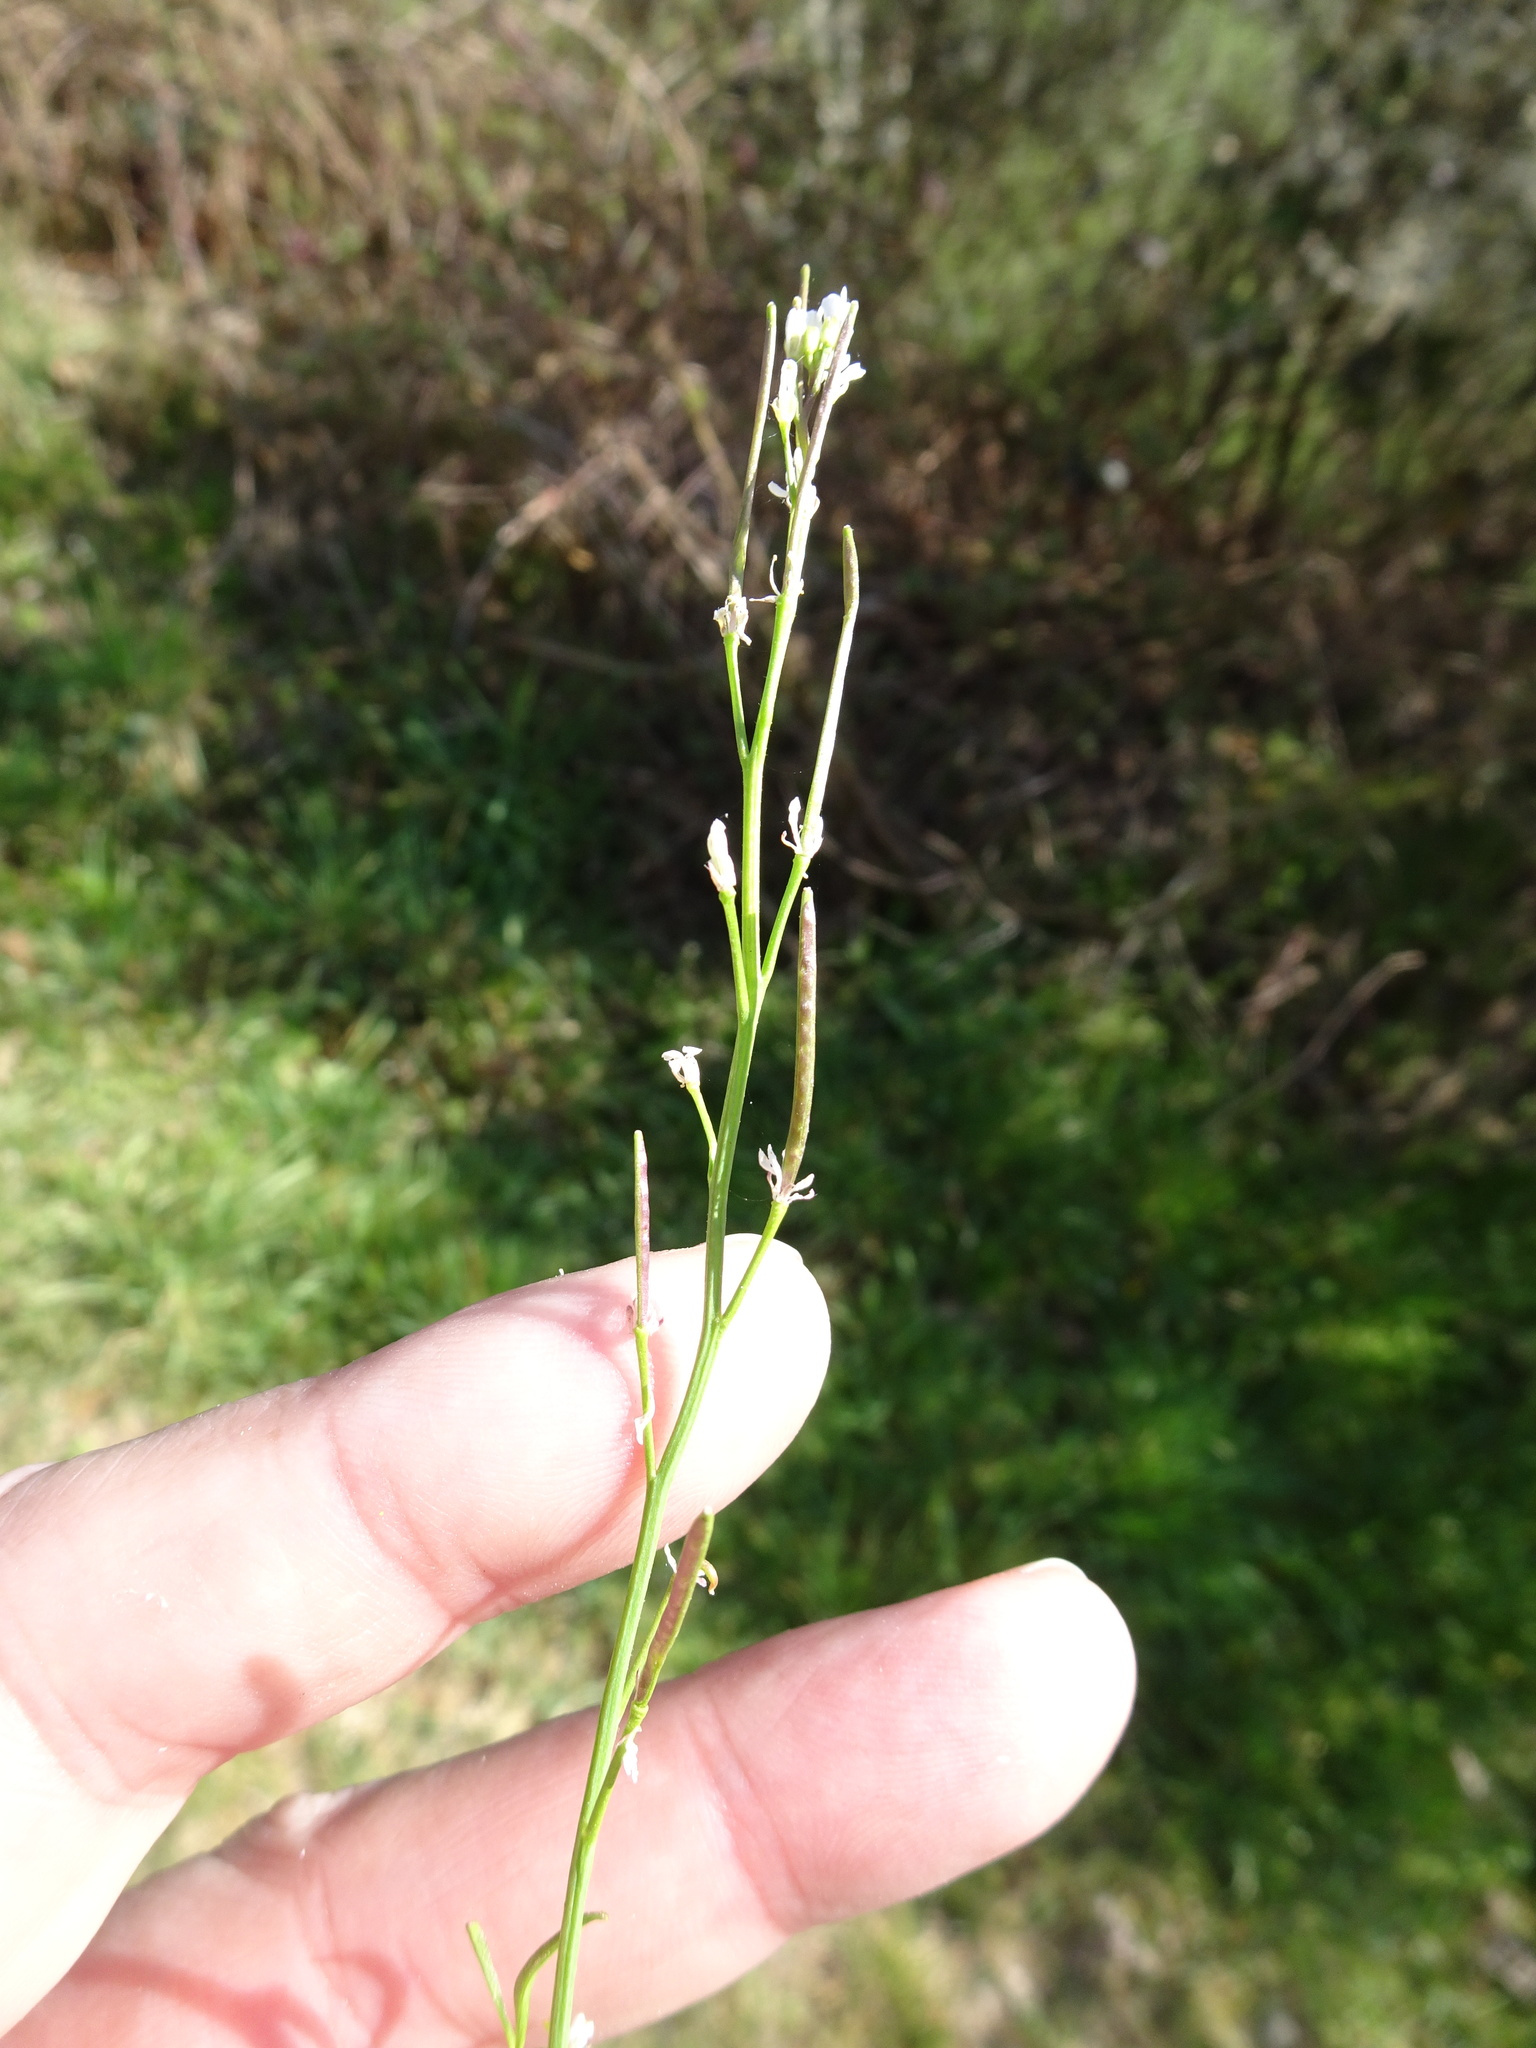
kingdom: Plantae
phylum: Tracheophyta
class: Magnoliopsida
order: Brassicales
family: Brassicaceae
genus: Cardamine
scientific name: Cardamine flexuosa
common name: Woodland bittercress
